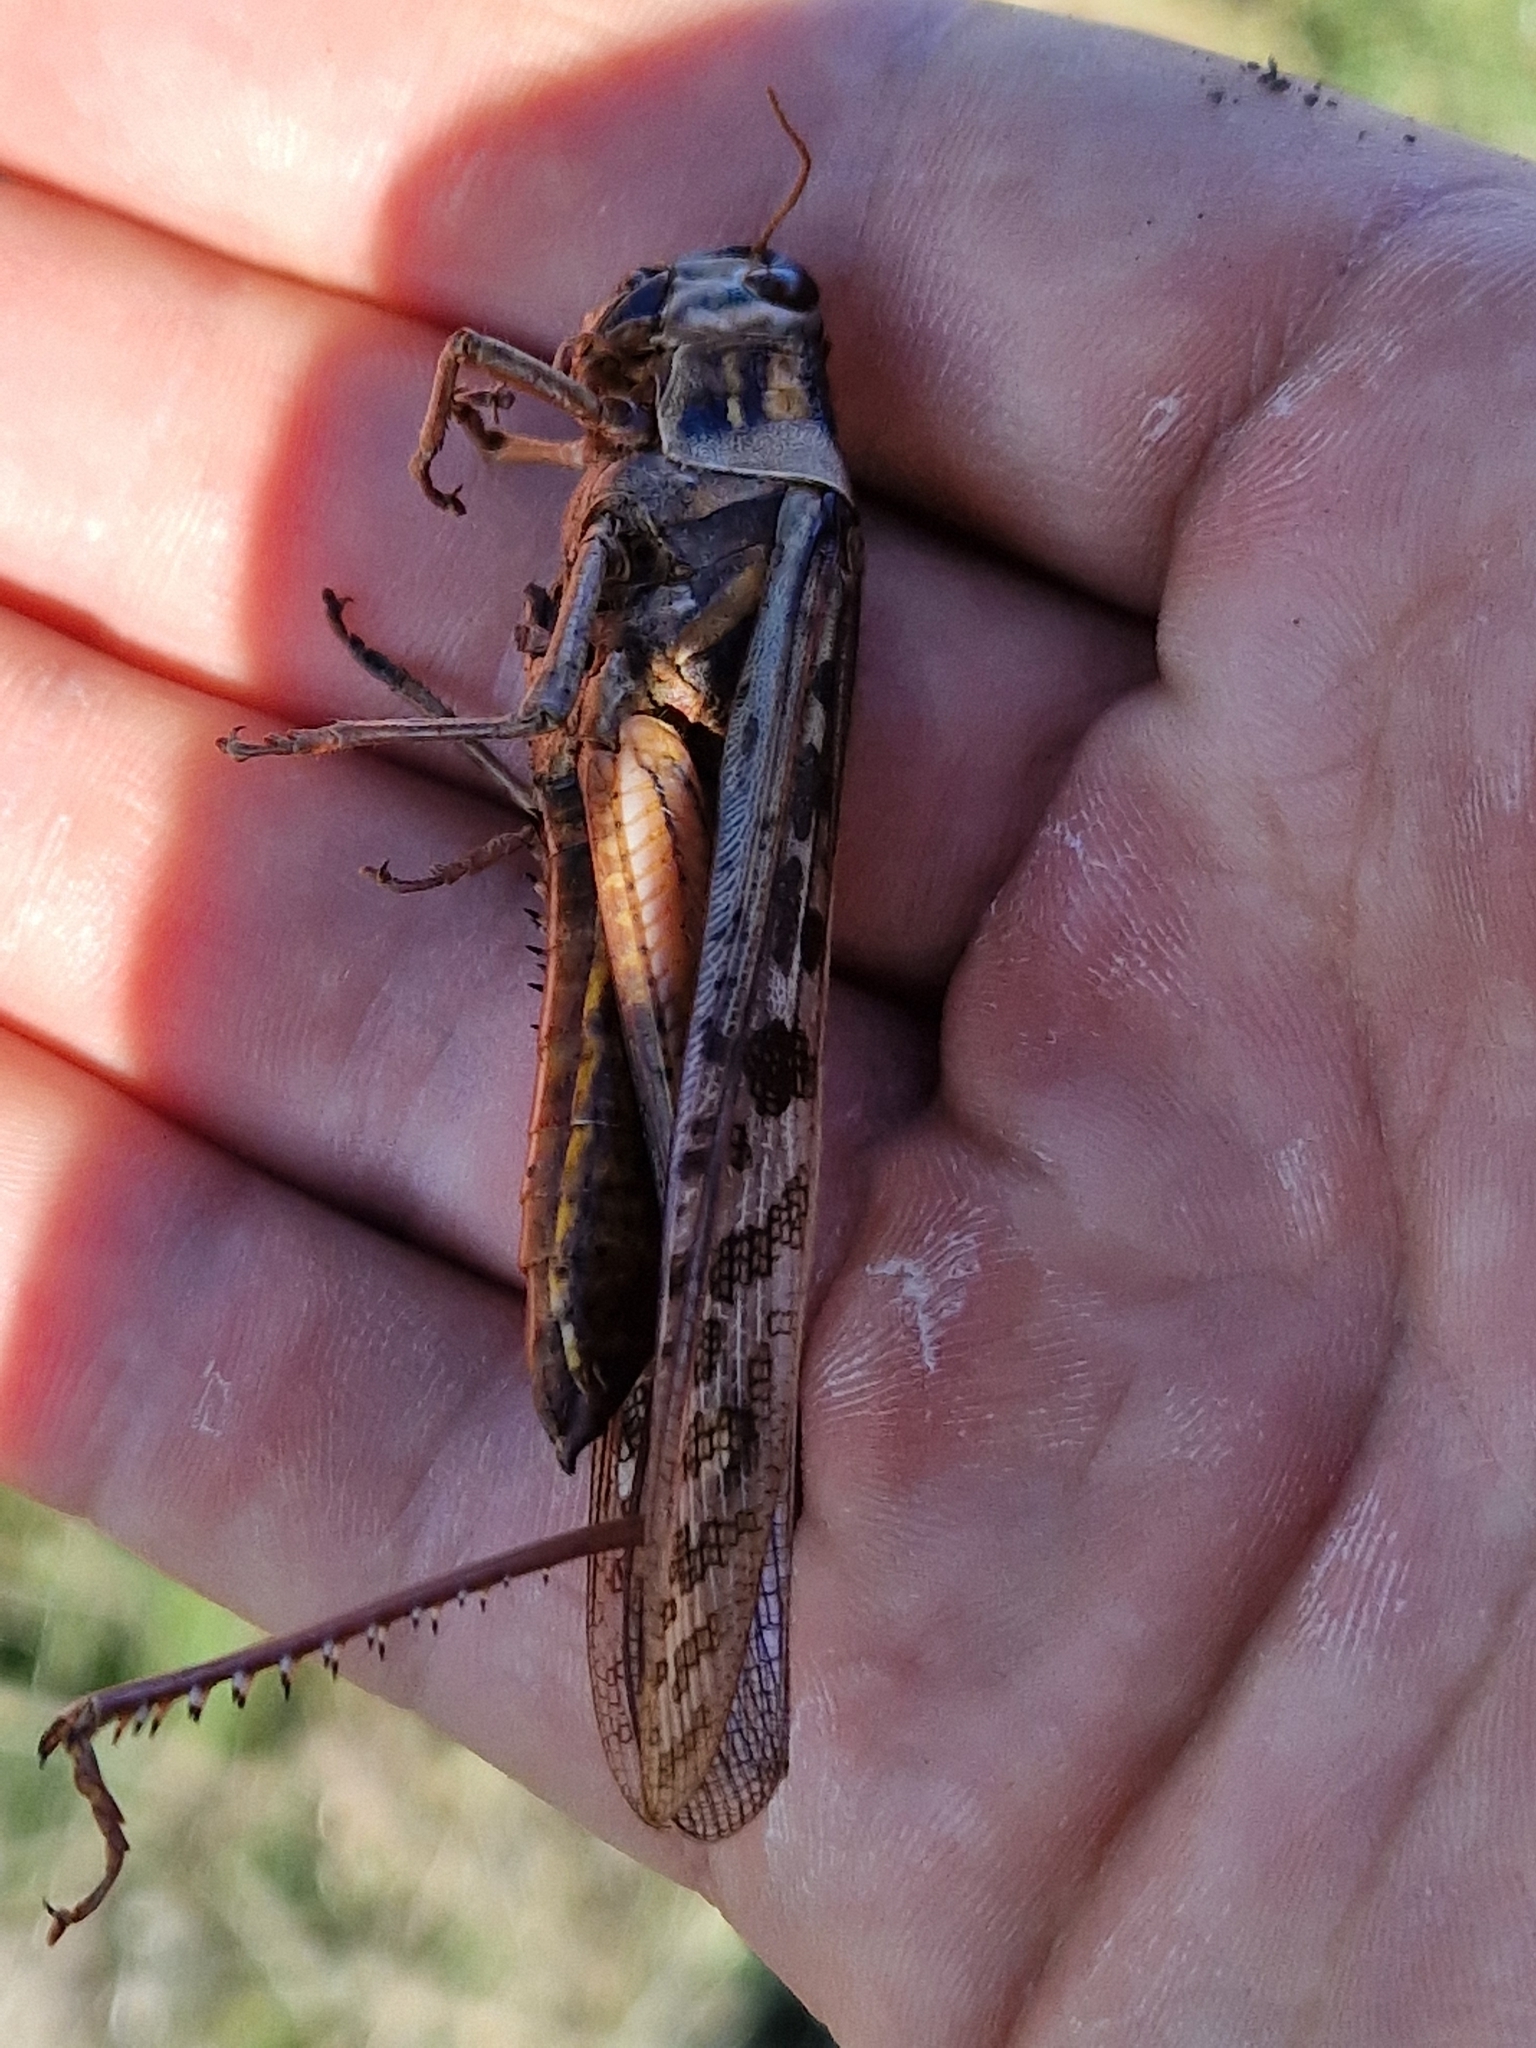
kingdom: Animalia
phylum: Arthropoda
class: Insecta
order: Orthoptera
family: Acrididae
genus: Schistocerca
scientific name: Schistocerca americana
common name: American bird locust
